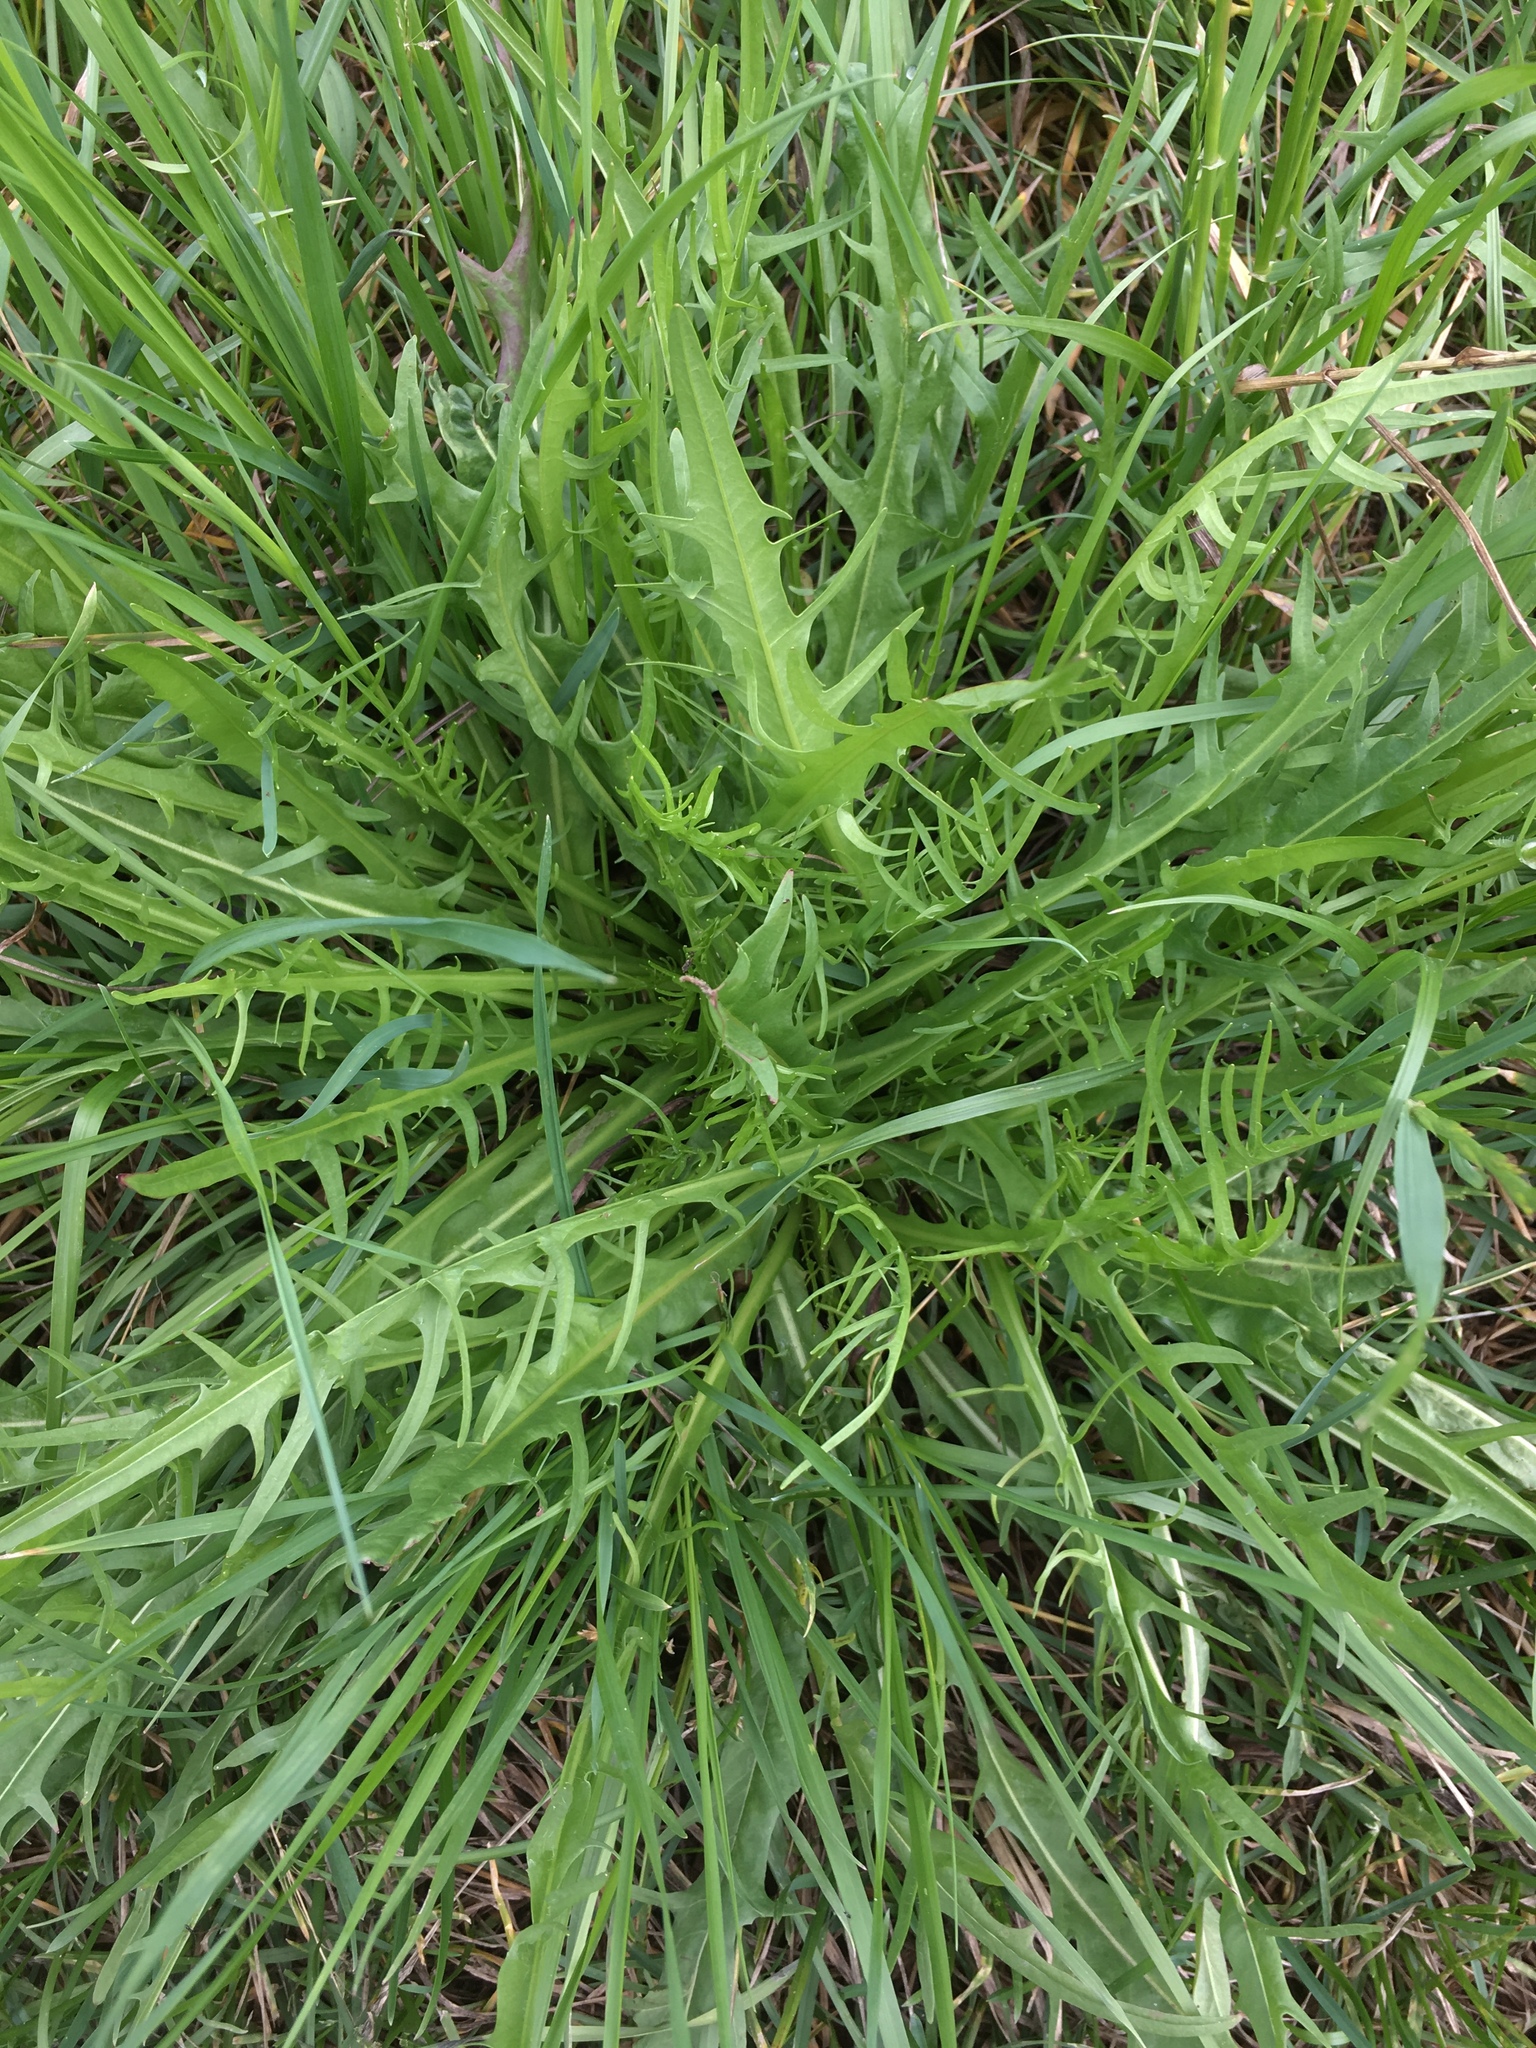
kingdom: Plantae
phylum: Tracheophyta
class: Magnoliopsida
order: Asterales
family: Asteraceae
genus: Scorzoneroides
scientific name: Scorzoneroides autumnalis
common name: Autumn hawkbit
